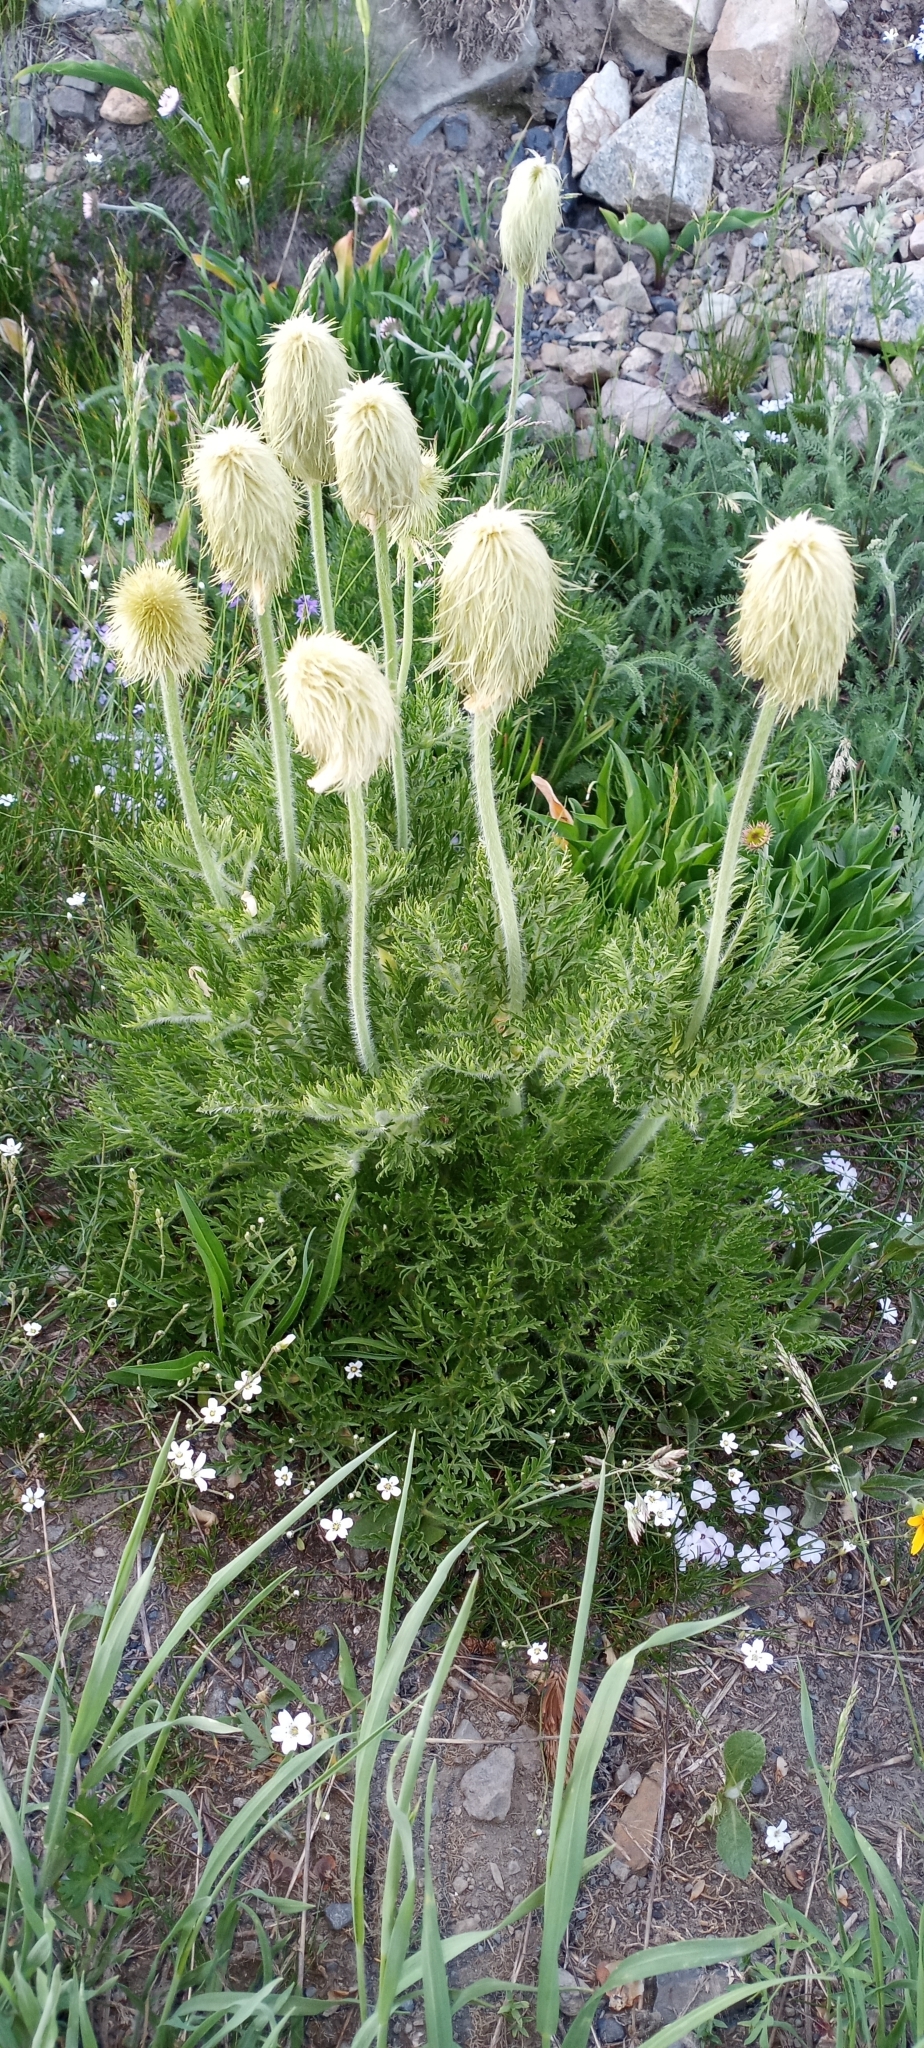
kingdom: Plantae
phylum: Tracheophyta
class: Magnoliopsida
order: Ranunculales
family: Ranunculaceae
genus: Pulsatilla
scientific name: Pulsatilla occidentalis
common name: Mountain pasqueflower
